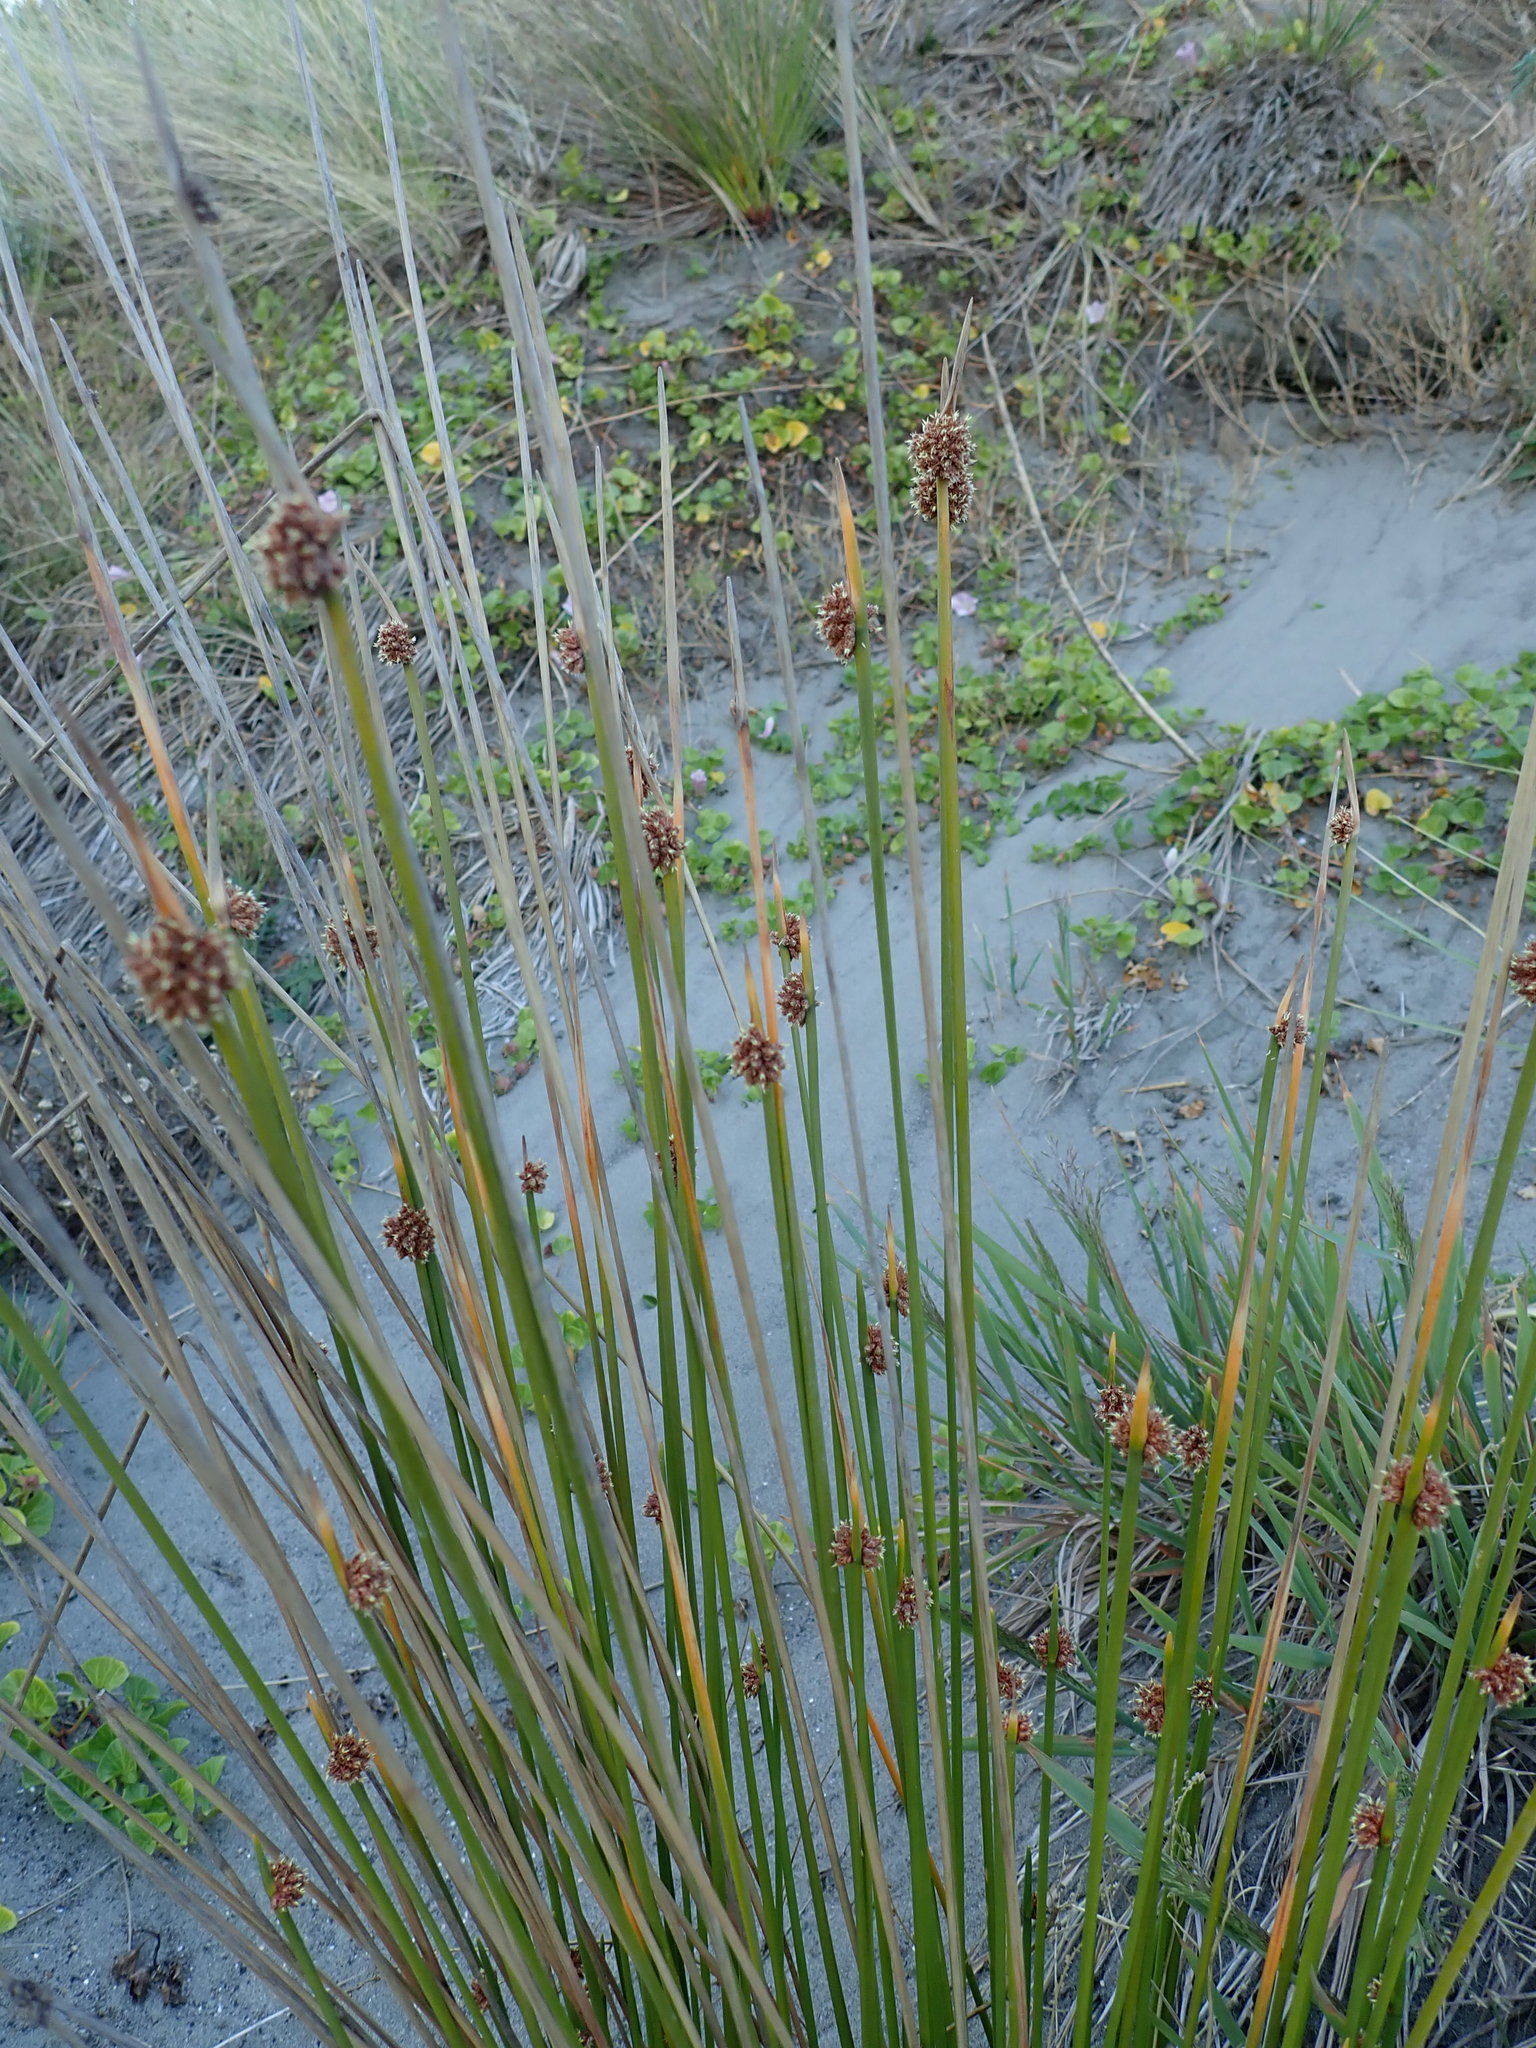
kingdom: Plantae
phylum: Tracheophyta
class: Liliopsida
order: Poales
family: Cyperaceae
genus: Ficinia
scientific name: Ficinia nodosa
